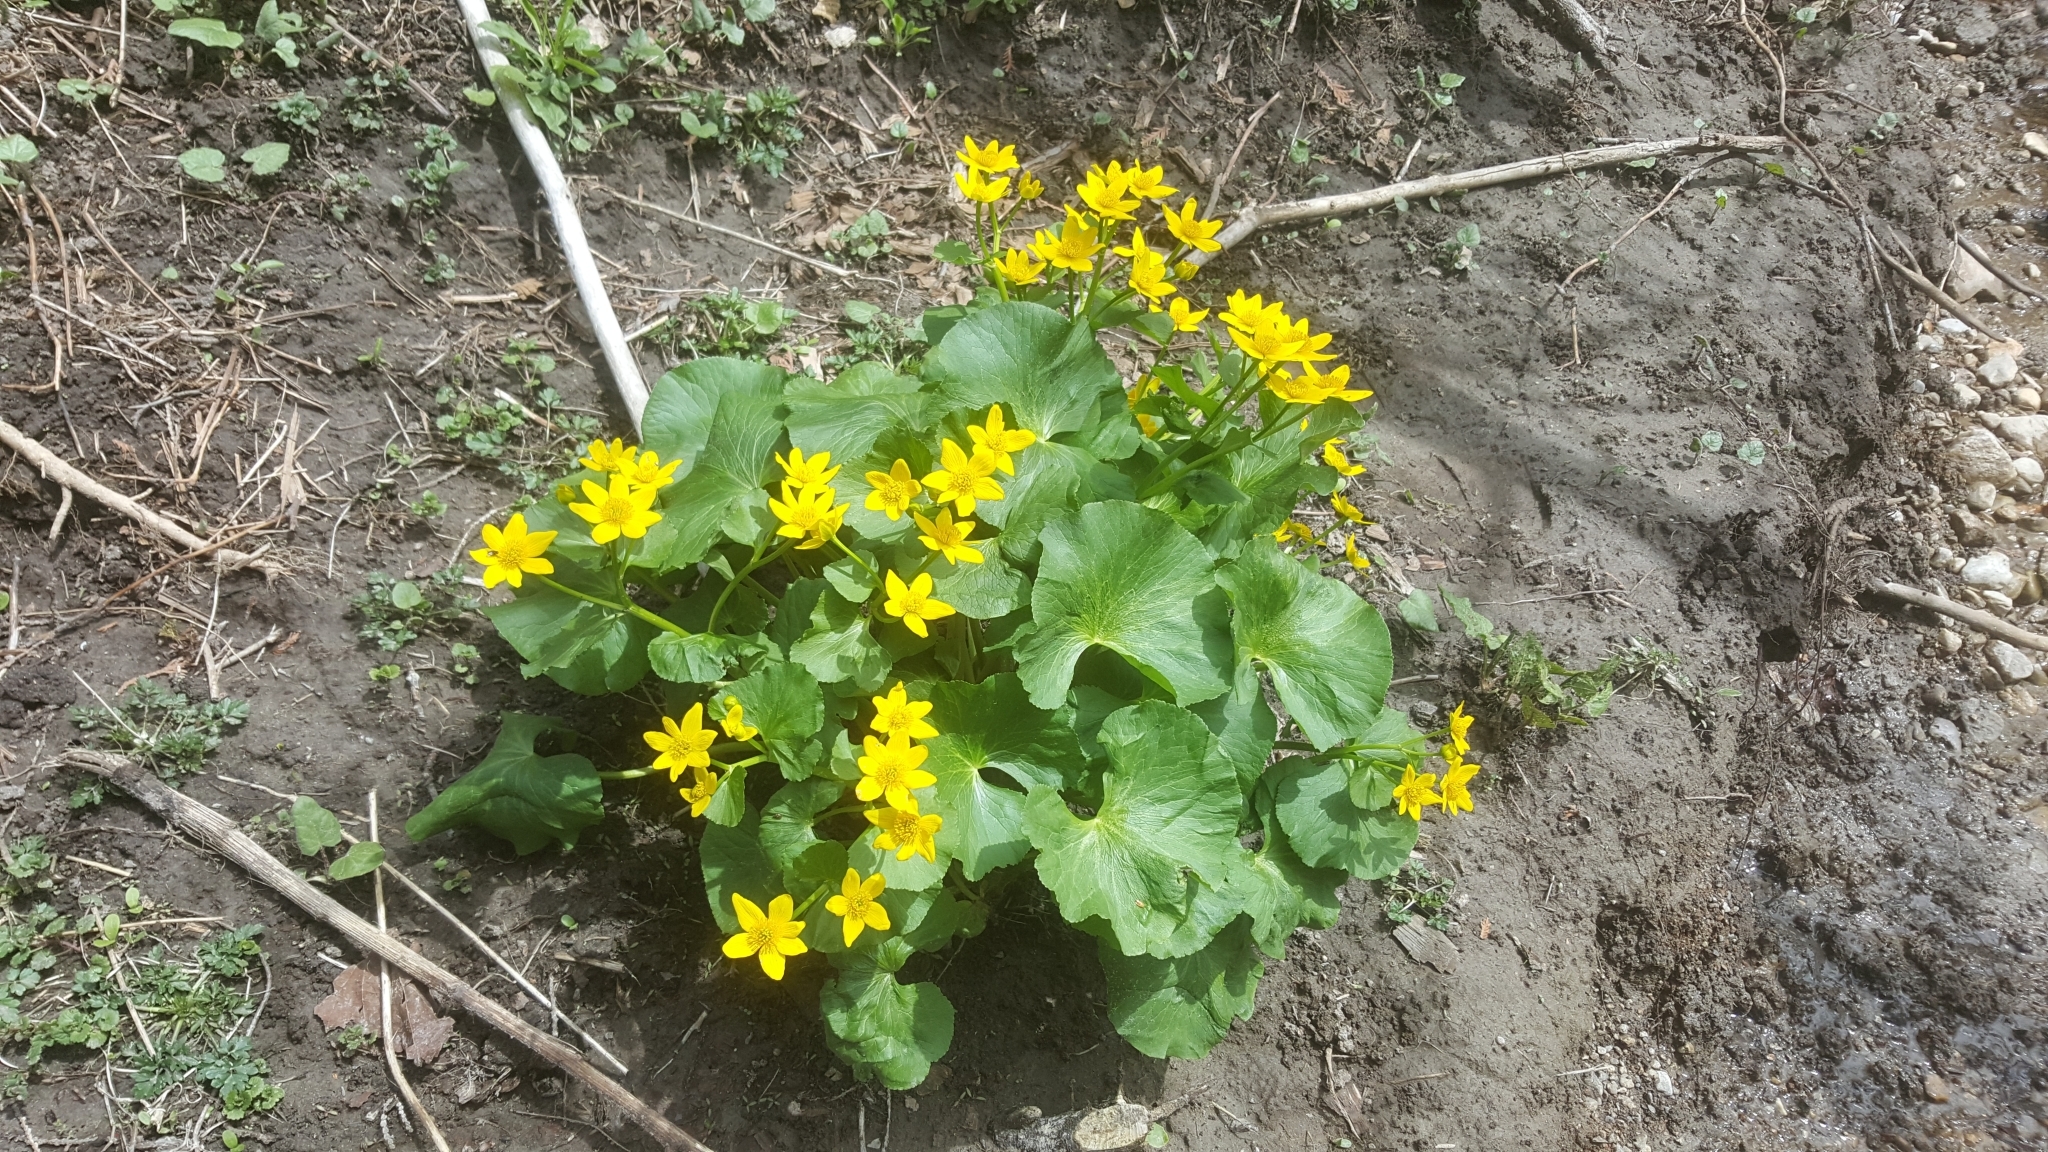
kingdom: Plantae
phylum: Tracheophyta
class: Magnoliopsida
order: Ranunculales
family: Ranunculaceae
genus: Caltha
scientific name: Caltha palustris
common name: Marsh marigold
